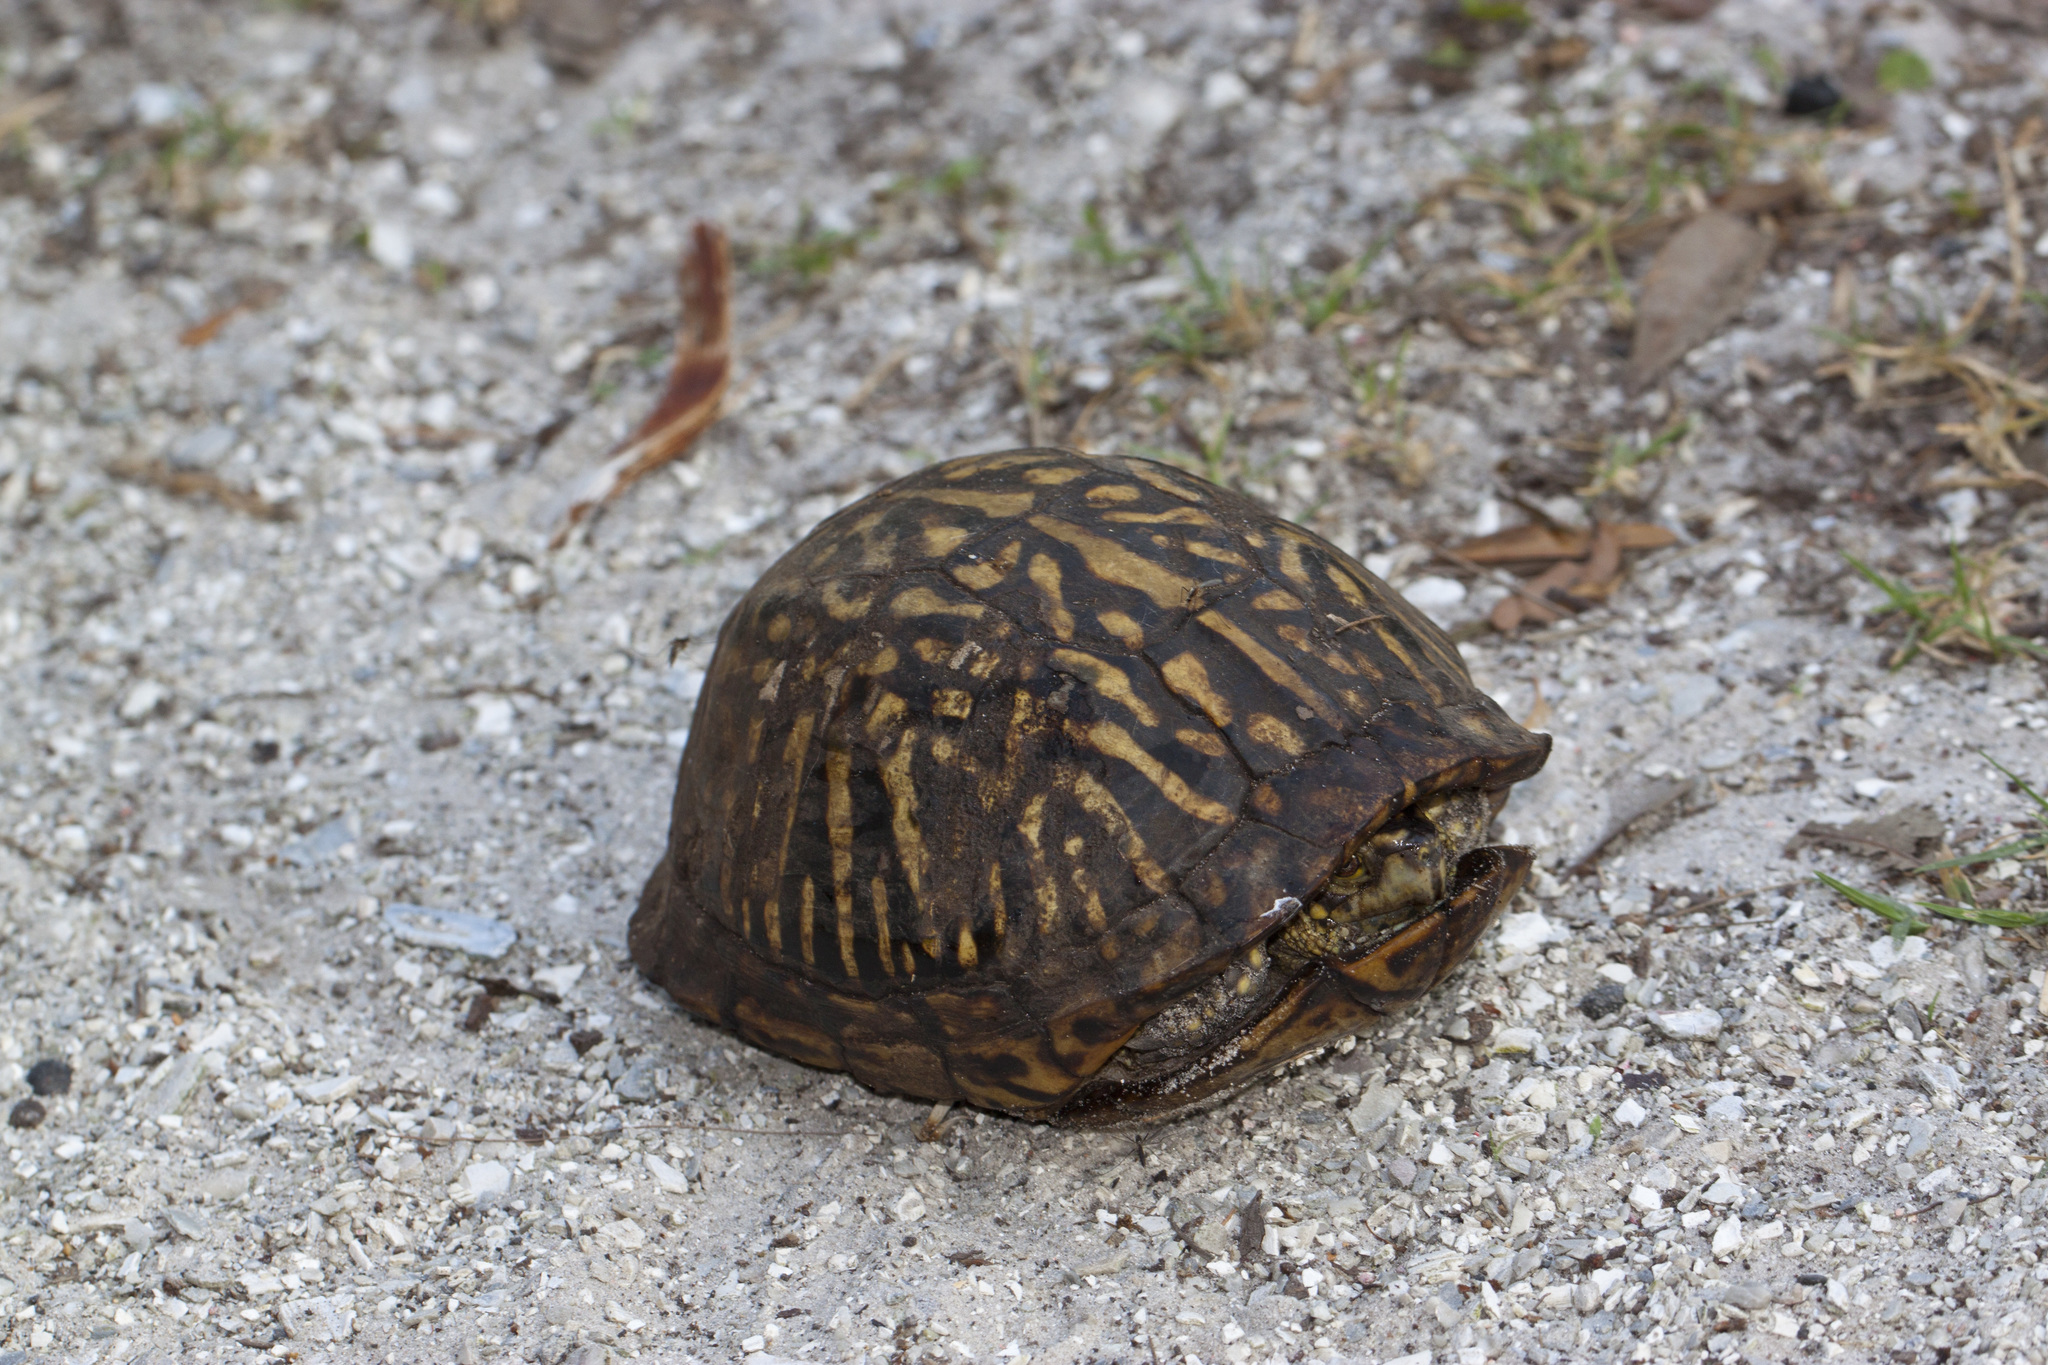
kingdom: Animalia
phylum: Chordata
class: Testudines
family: Emydidae
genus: Terrapene
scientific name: Terrapene carolina
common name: Common box turtle
